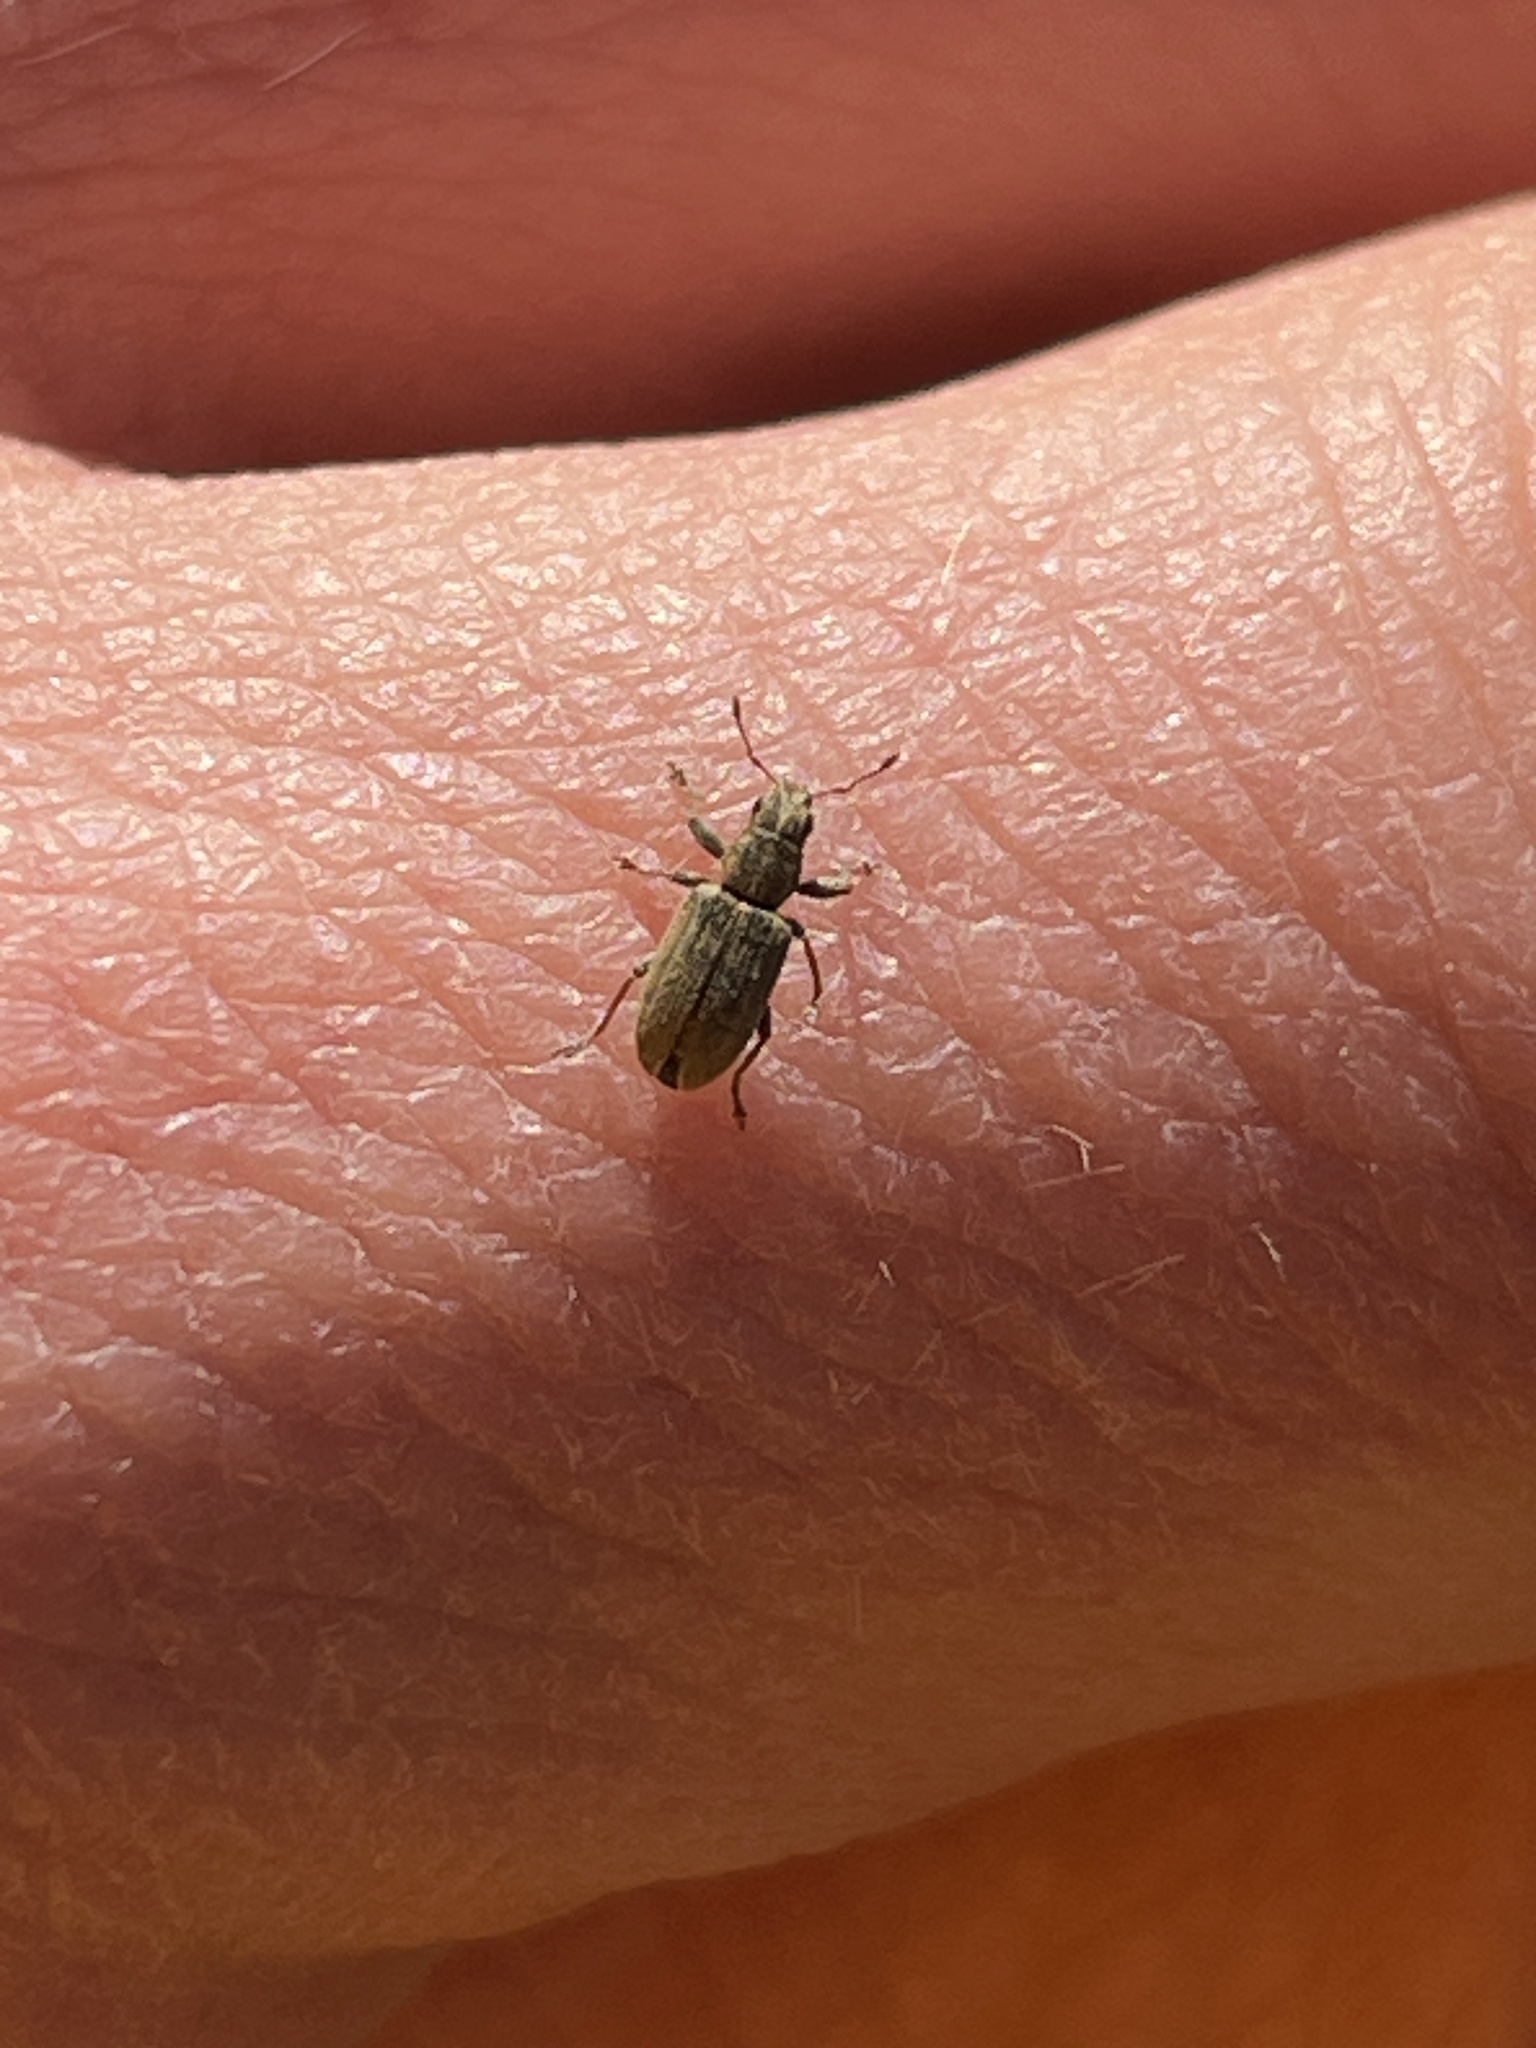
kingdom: Animalia
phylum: Arthropoda
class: Insecta
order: Coleoptera
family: Curculionidae
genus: Sitona
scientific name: Sitona lineatus
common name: Weevil
